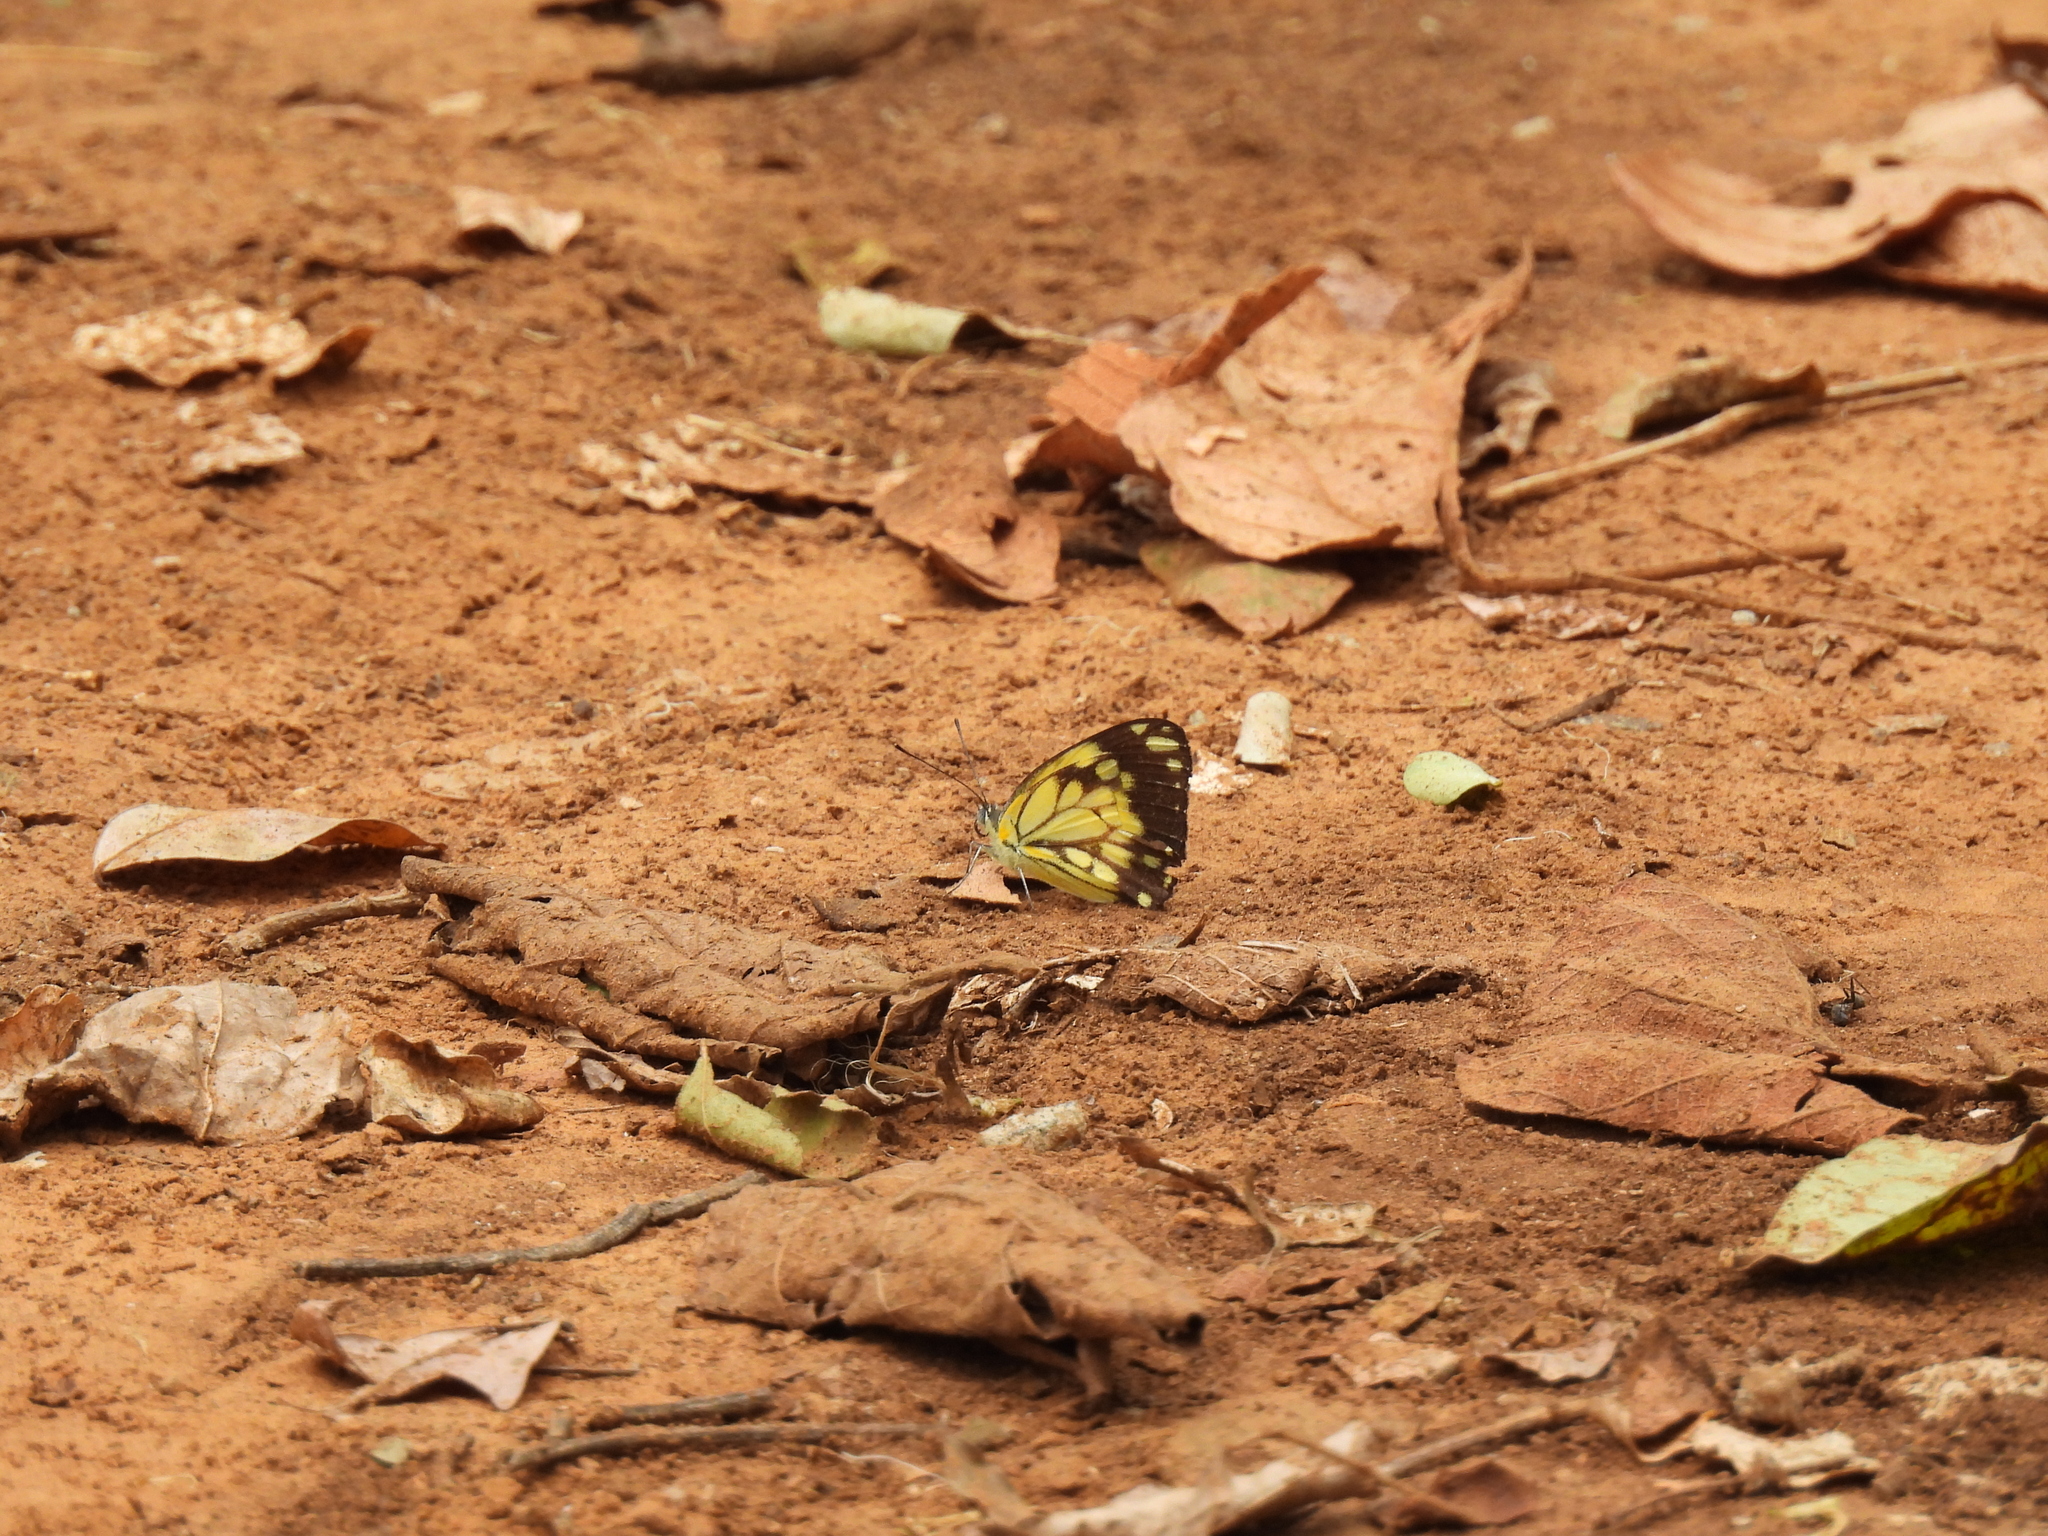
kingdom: Animalia
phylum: Arthropoda
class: Insecta
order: Lepidoptera
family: Pieridae
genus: Belenois
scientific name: Belenois creona
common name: African caper white
